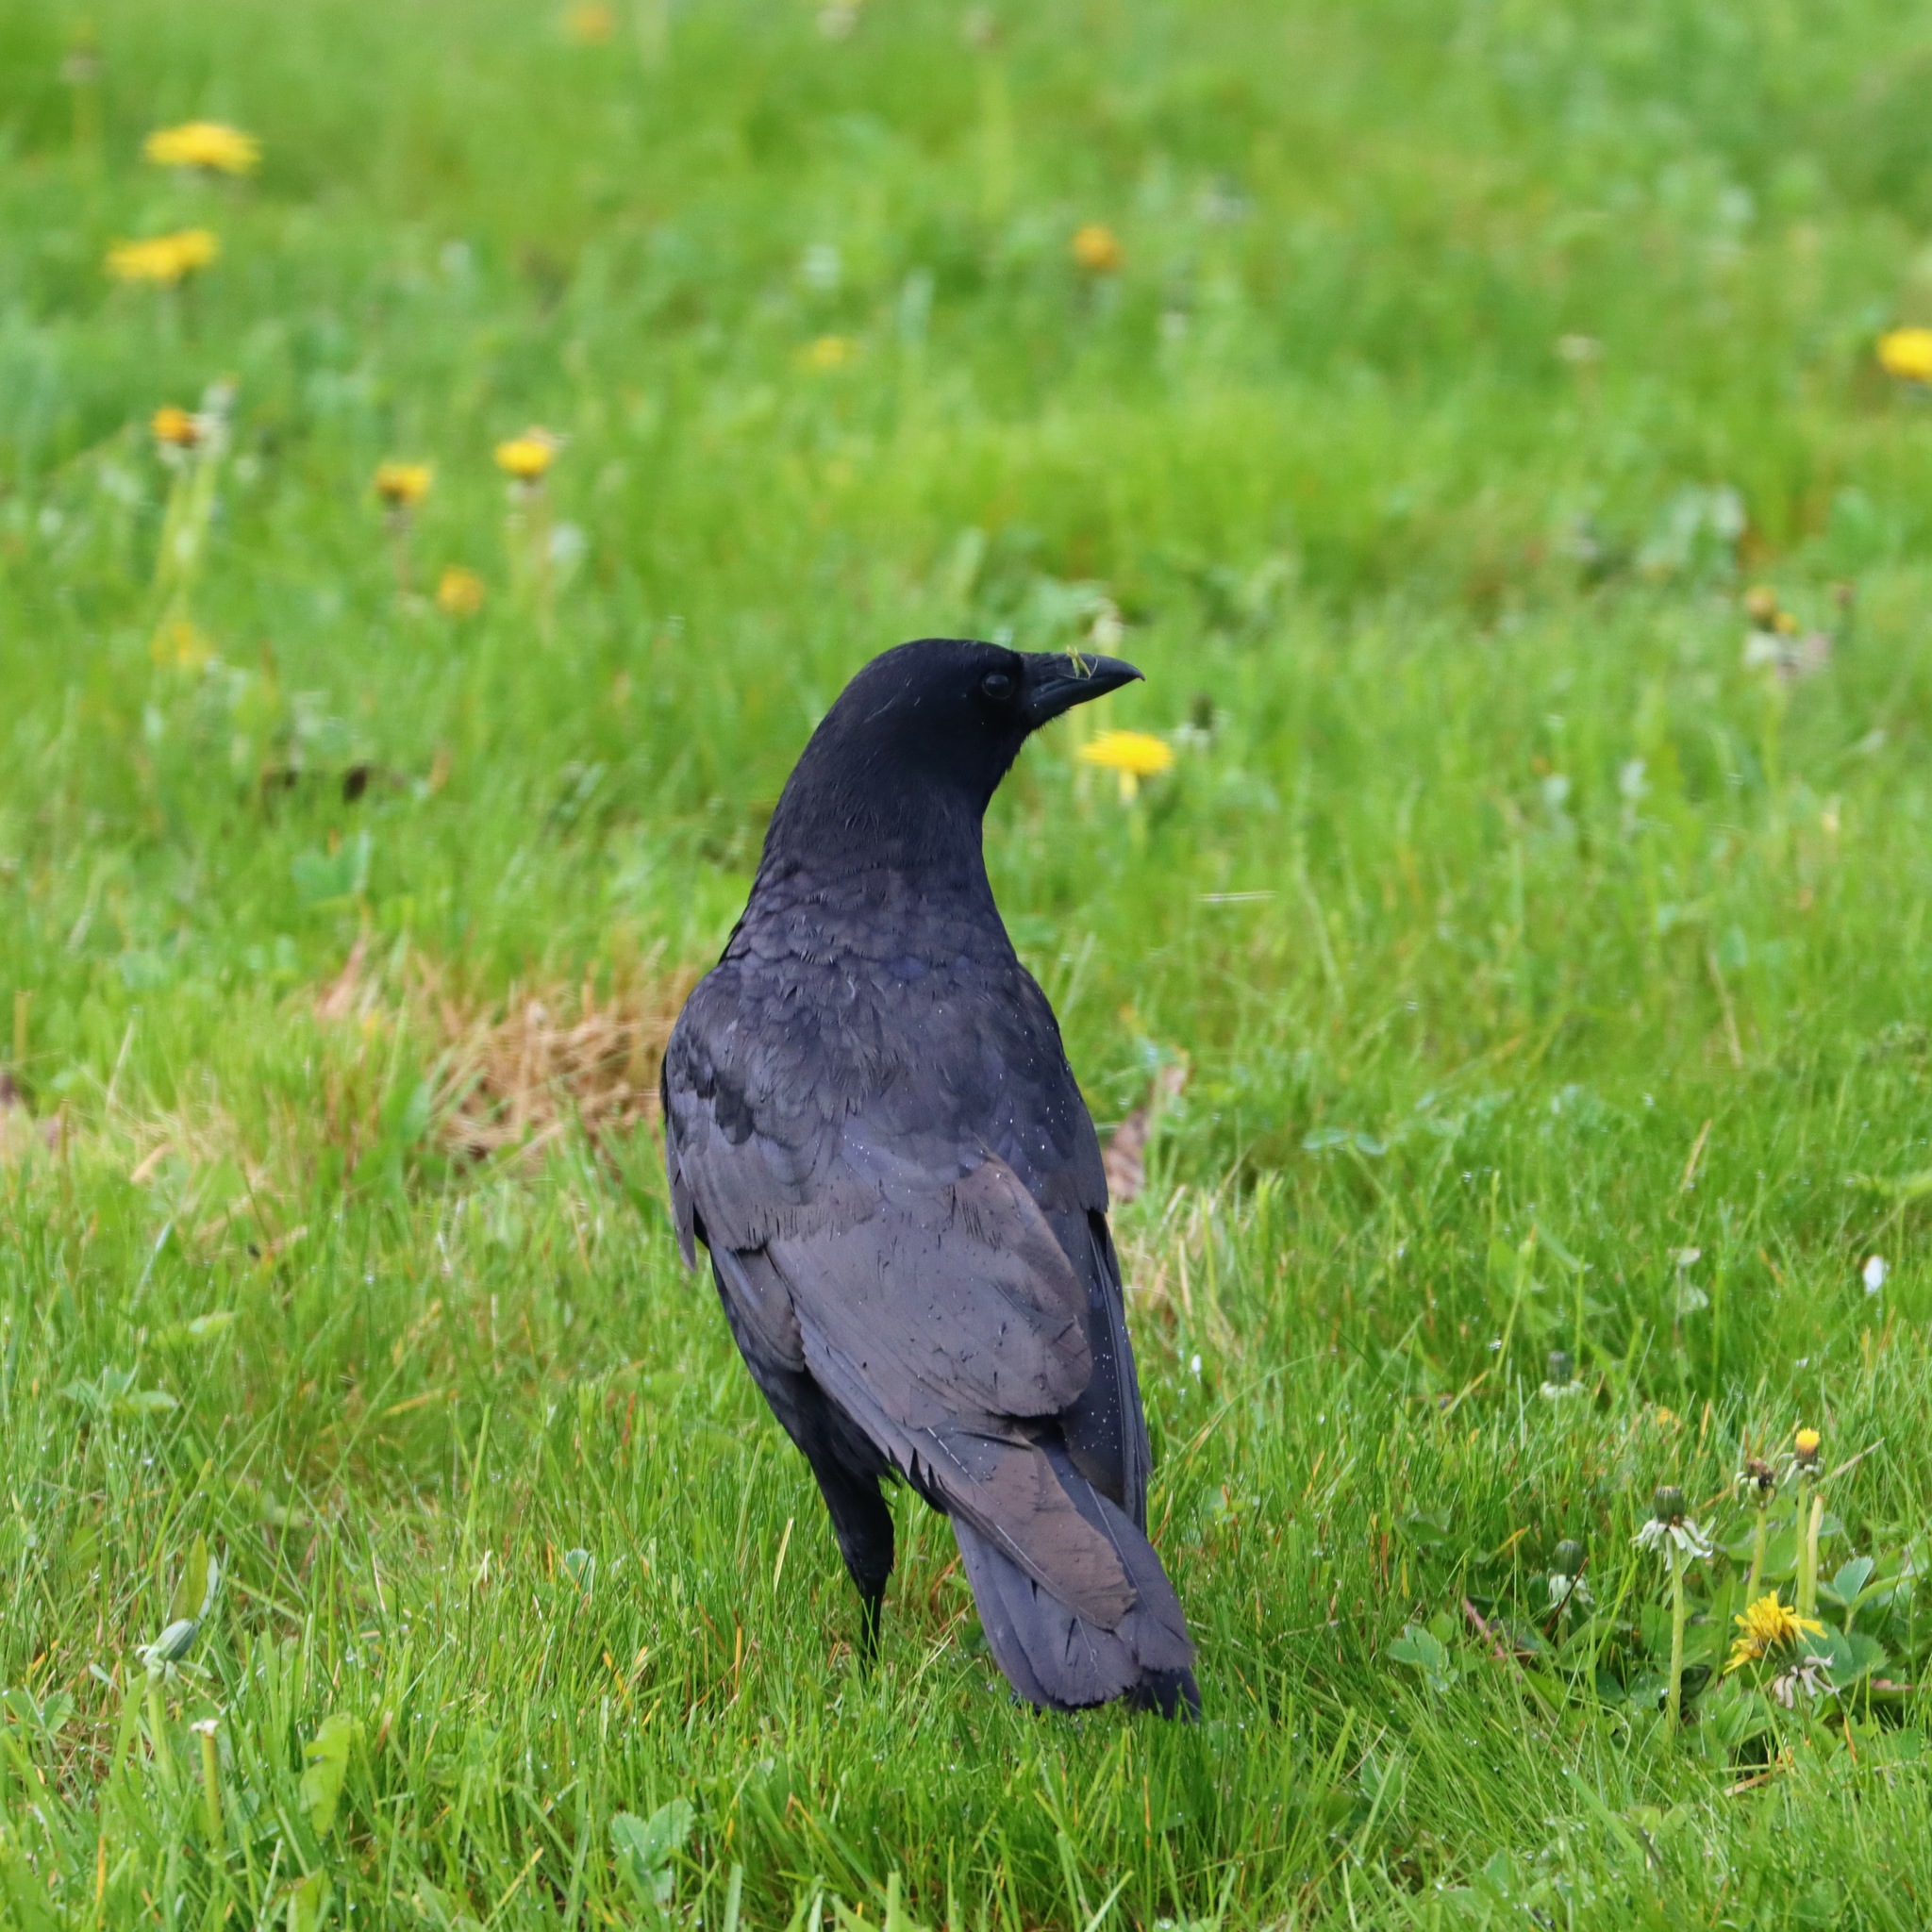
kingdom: Animalia
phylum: Chordata
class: Aves
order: Passeriformes
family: Corvidae
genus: Corvus
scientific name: Corvus
